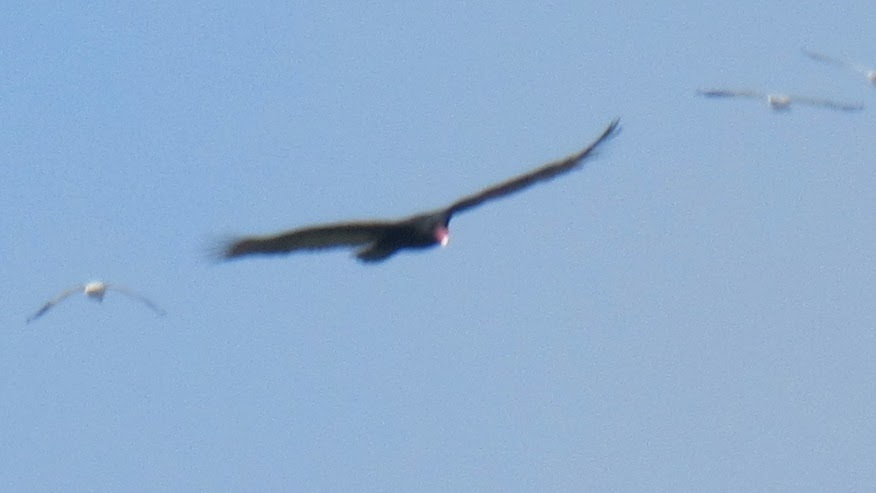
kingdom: Animalia
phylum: Chordata
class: Aves
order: Accipitriformes
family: Cathartidae
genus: Cathartes
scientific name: Cathartes aura
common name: Turkey vulture
